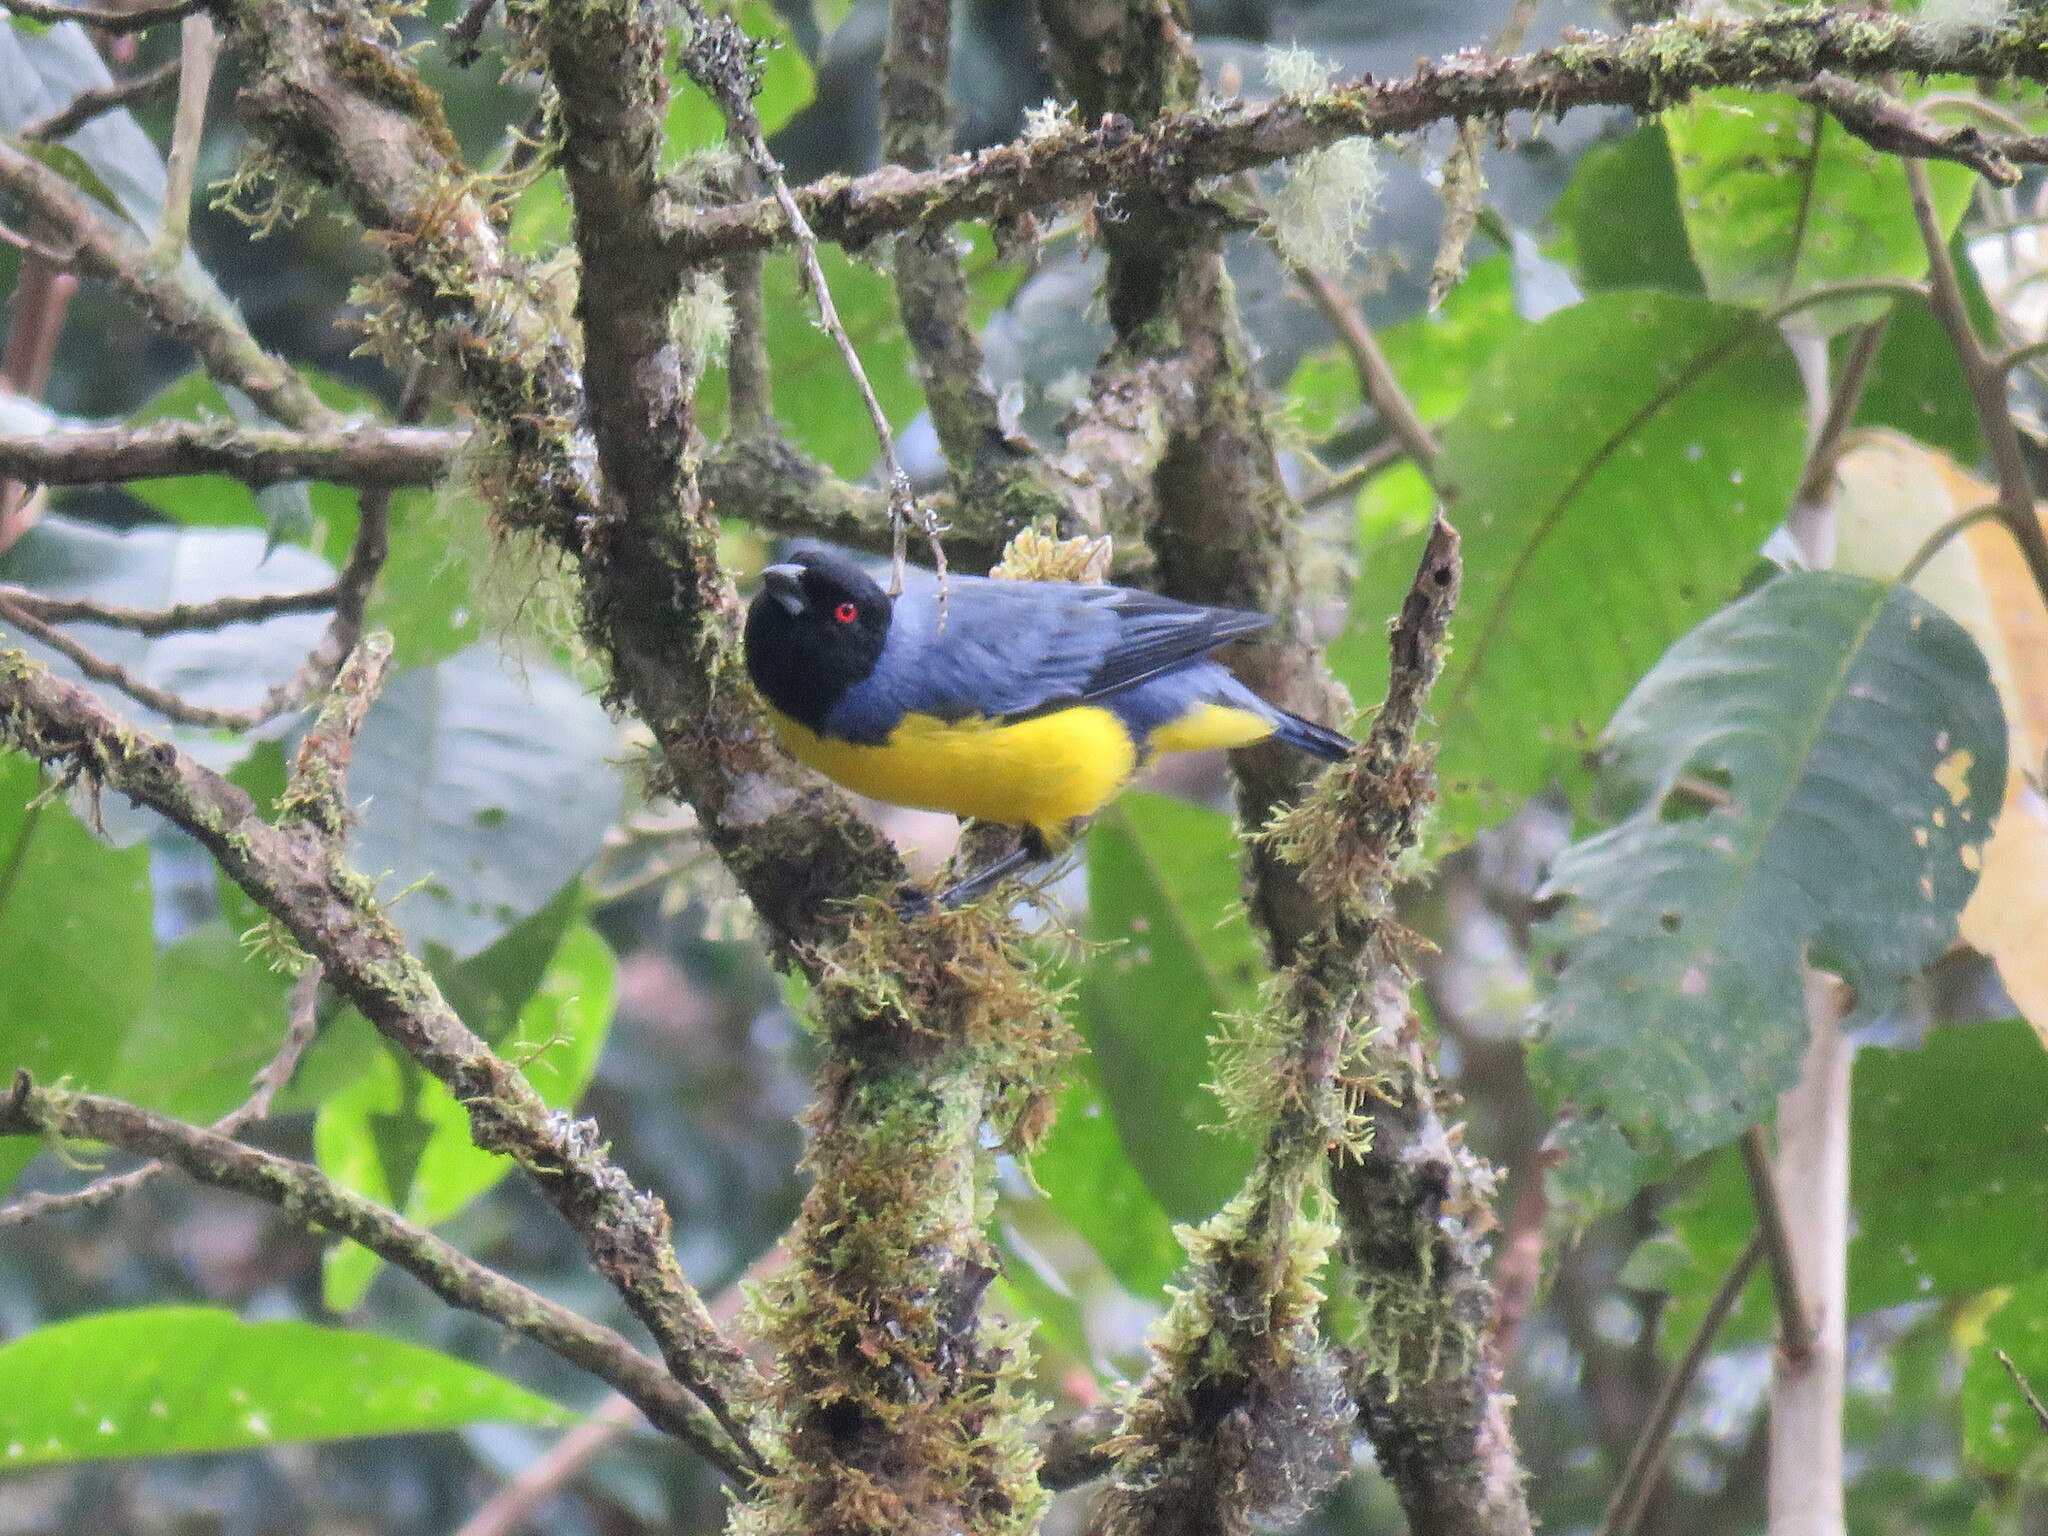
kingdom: Animalia
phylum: Chordata
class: Aves
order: Passeriformes
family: Thraupidae
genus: Buthraupis
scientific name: Buthraupis montana
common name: Hooded mountain tanager
